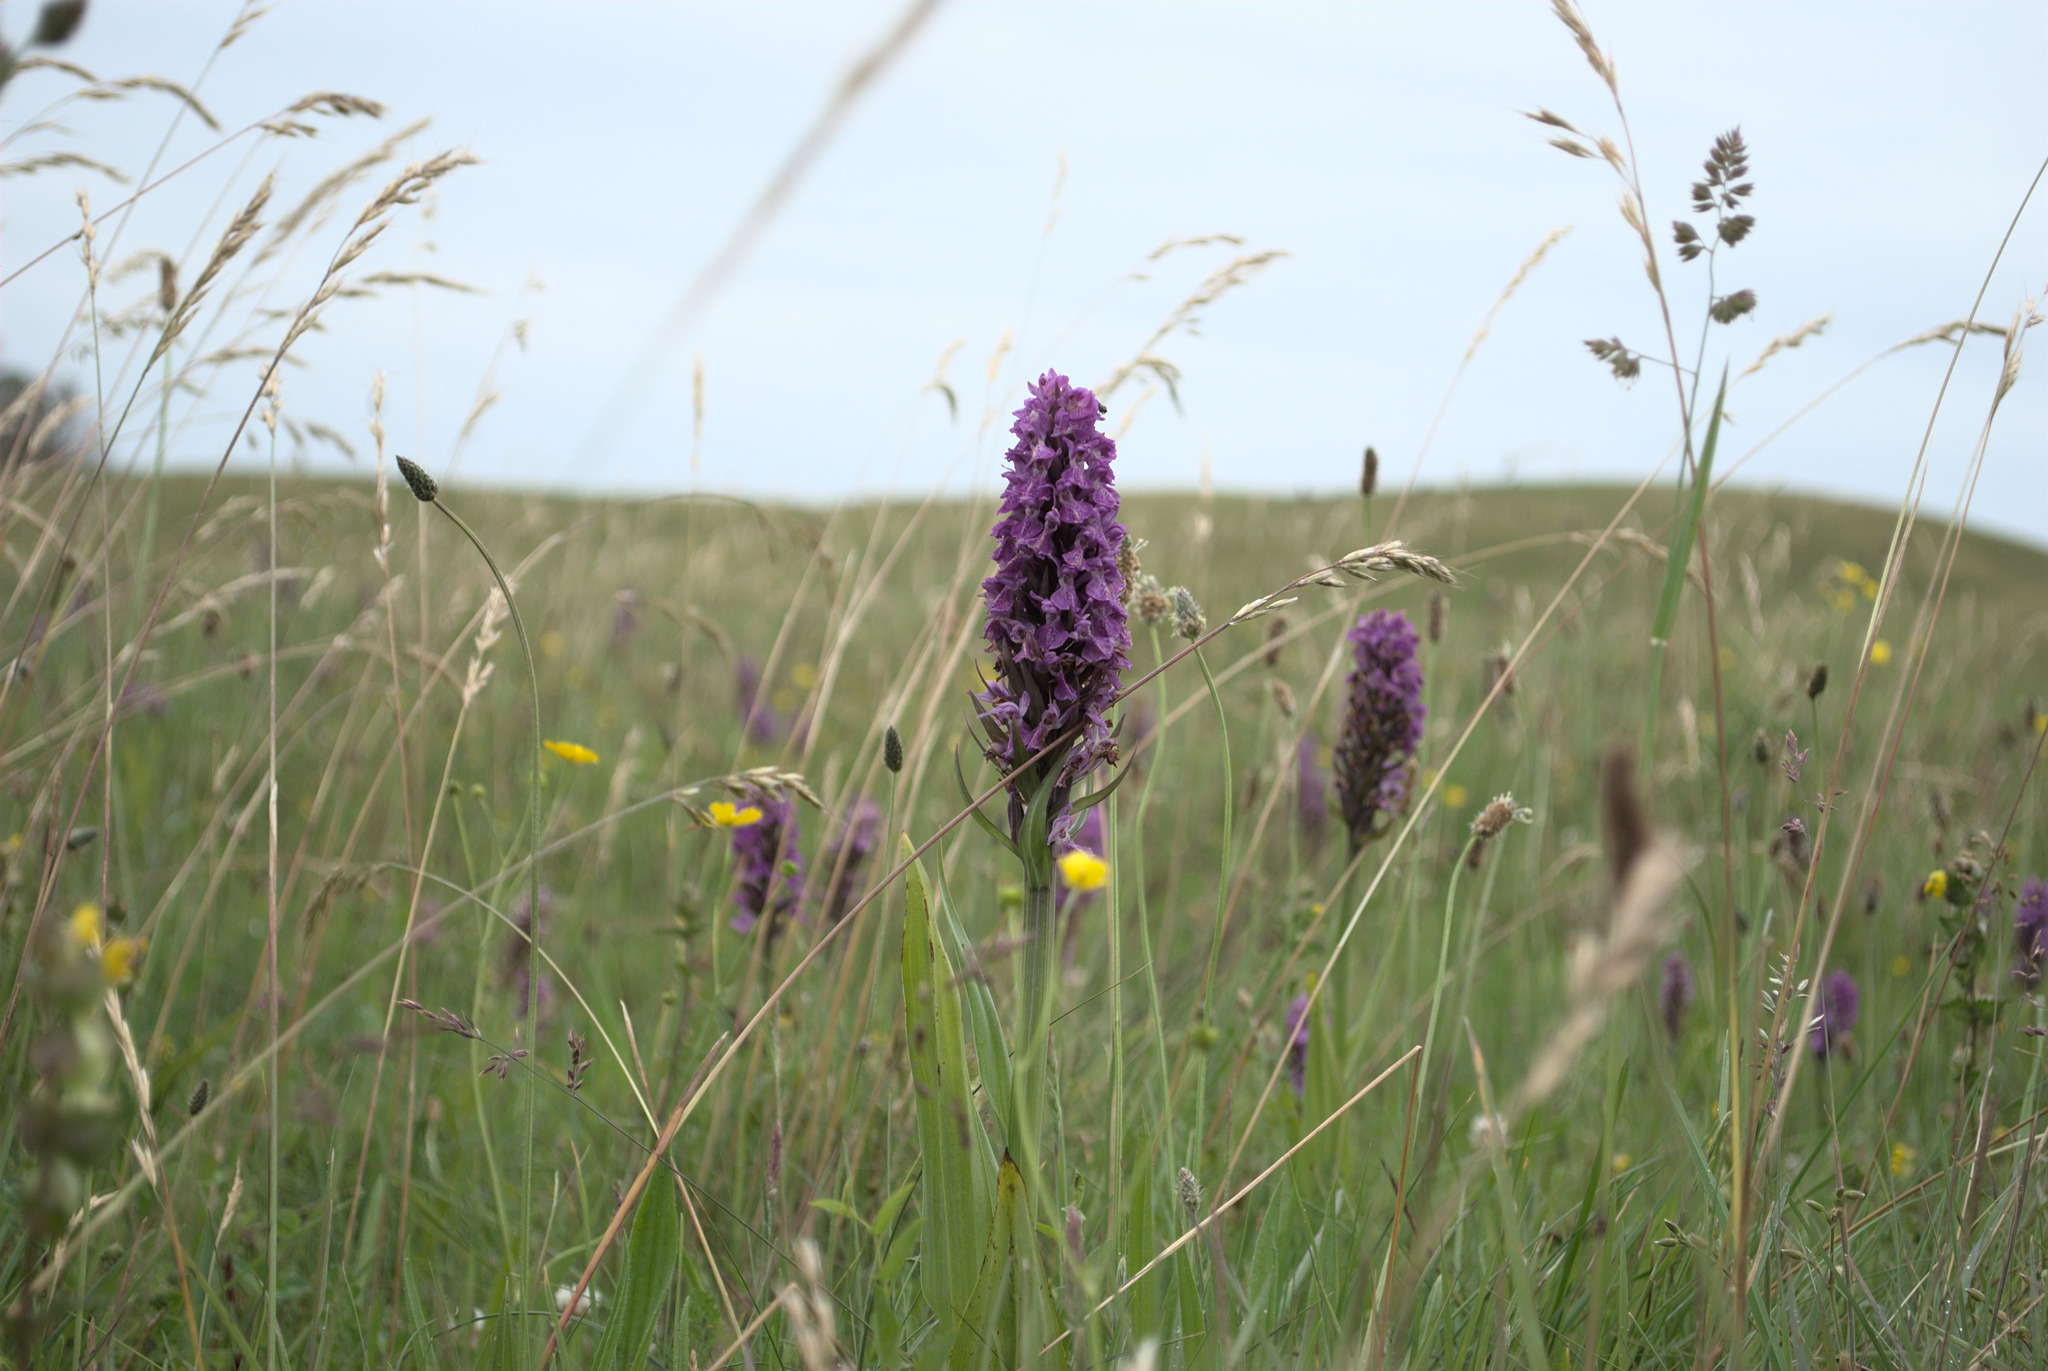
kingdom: Plantae
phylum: Tracheophyta
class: Liliopsida
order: Asparagales
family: Orchidaceae
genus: Dactylorhiza
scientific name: Dactylorhiza majalis
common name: Marsh orchid
